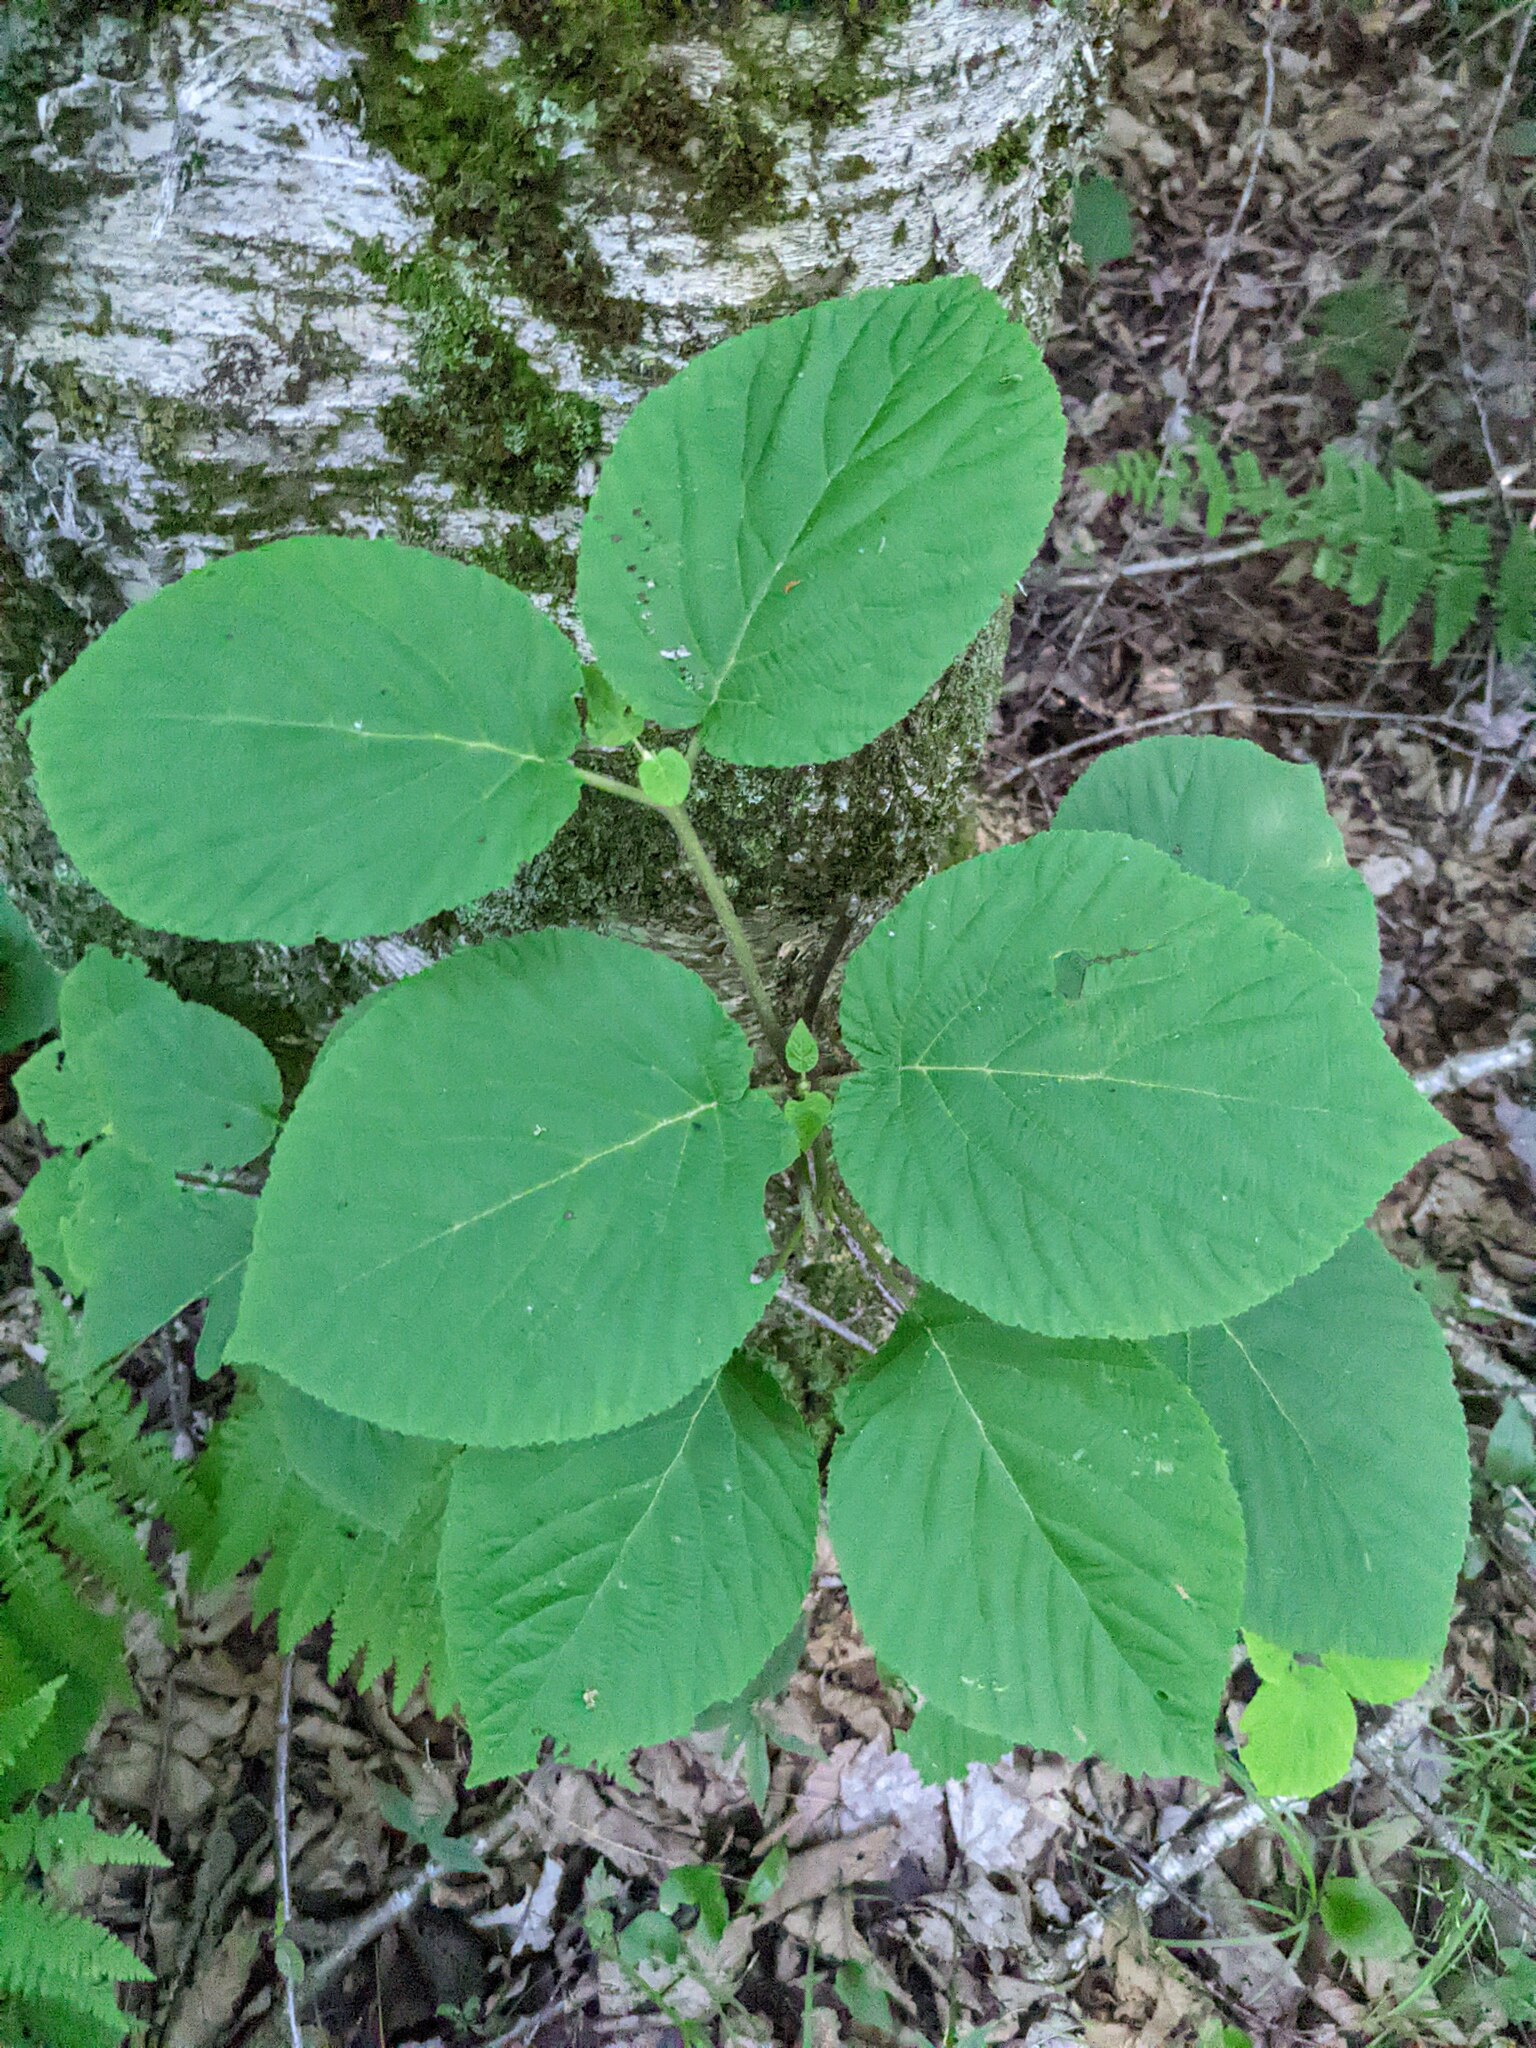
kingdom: Plantae
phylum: Tracheophyta
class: Magnoliopsida
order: Dipsacales
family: Viburnaceae
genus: Viburnum
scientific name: Viburnum lantanoides
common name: Hobblebush
